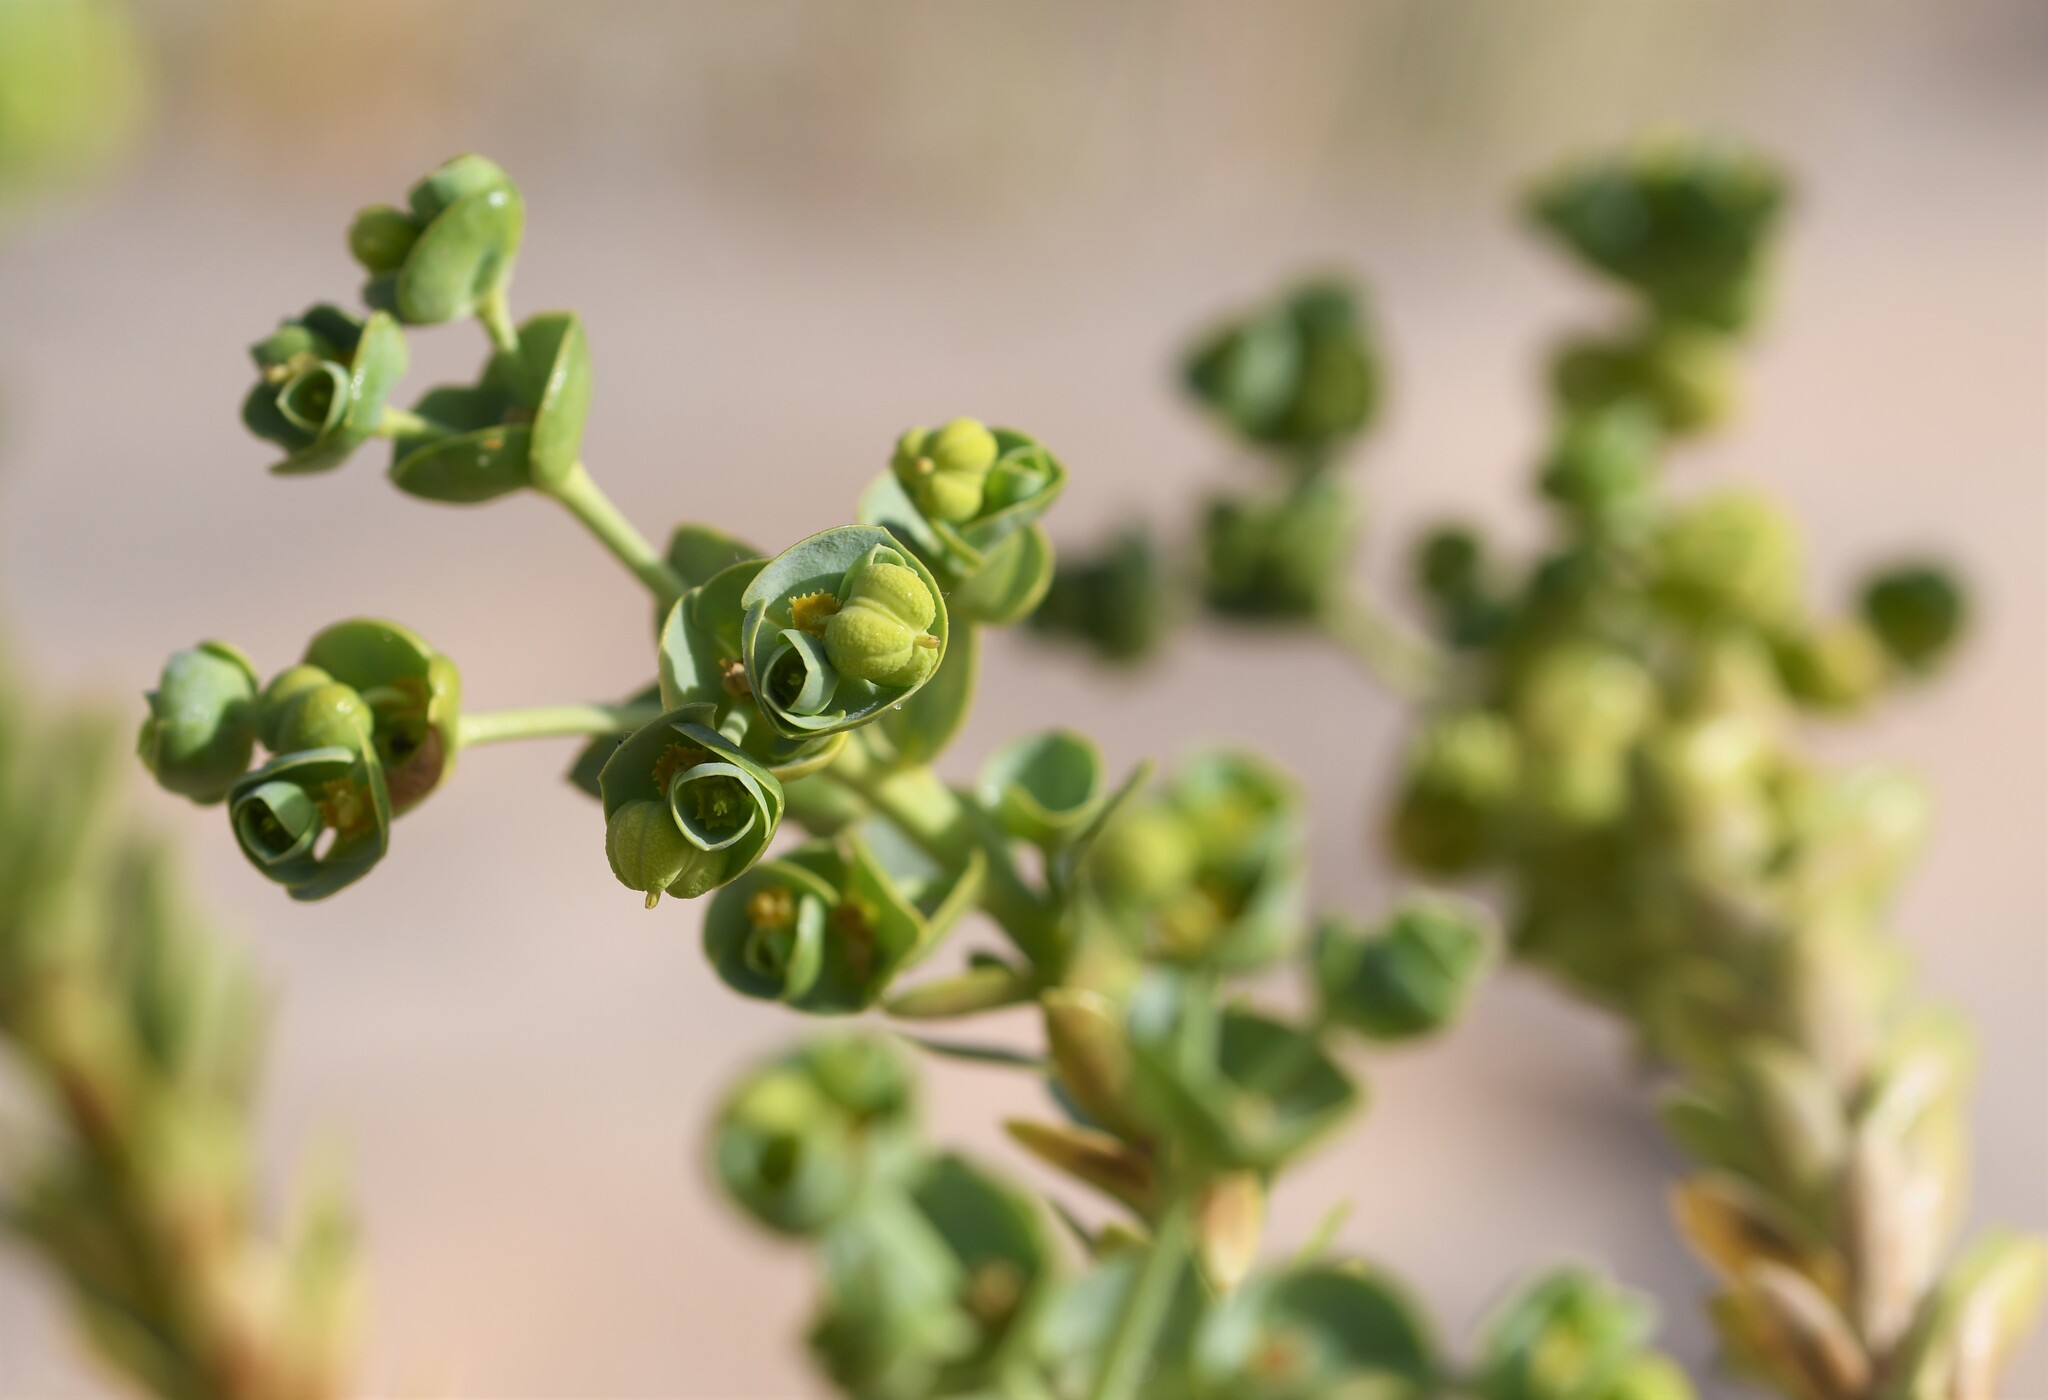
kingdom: Plantae
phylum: Tracheophyta
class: Magnoliopsida
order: Malpighiales
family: Euphorbiaceae
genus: Euphorbia
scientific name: Euphorbia paralias
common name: Sea spurge
